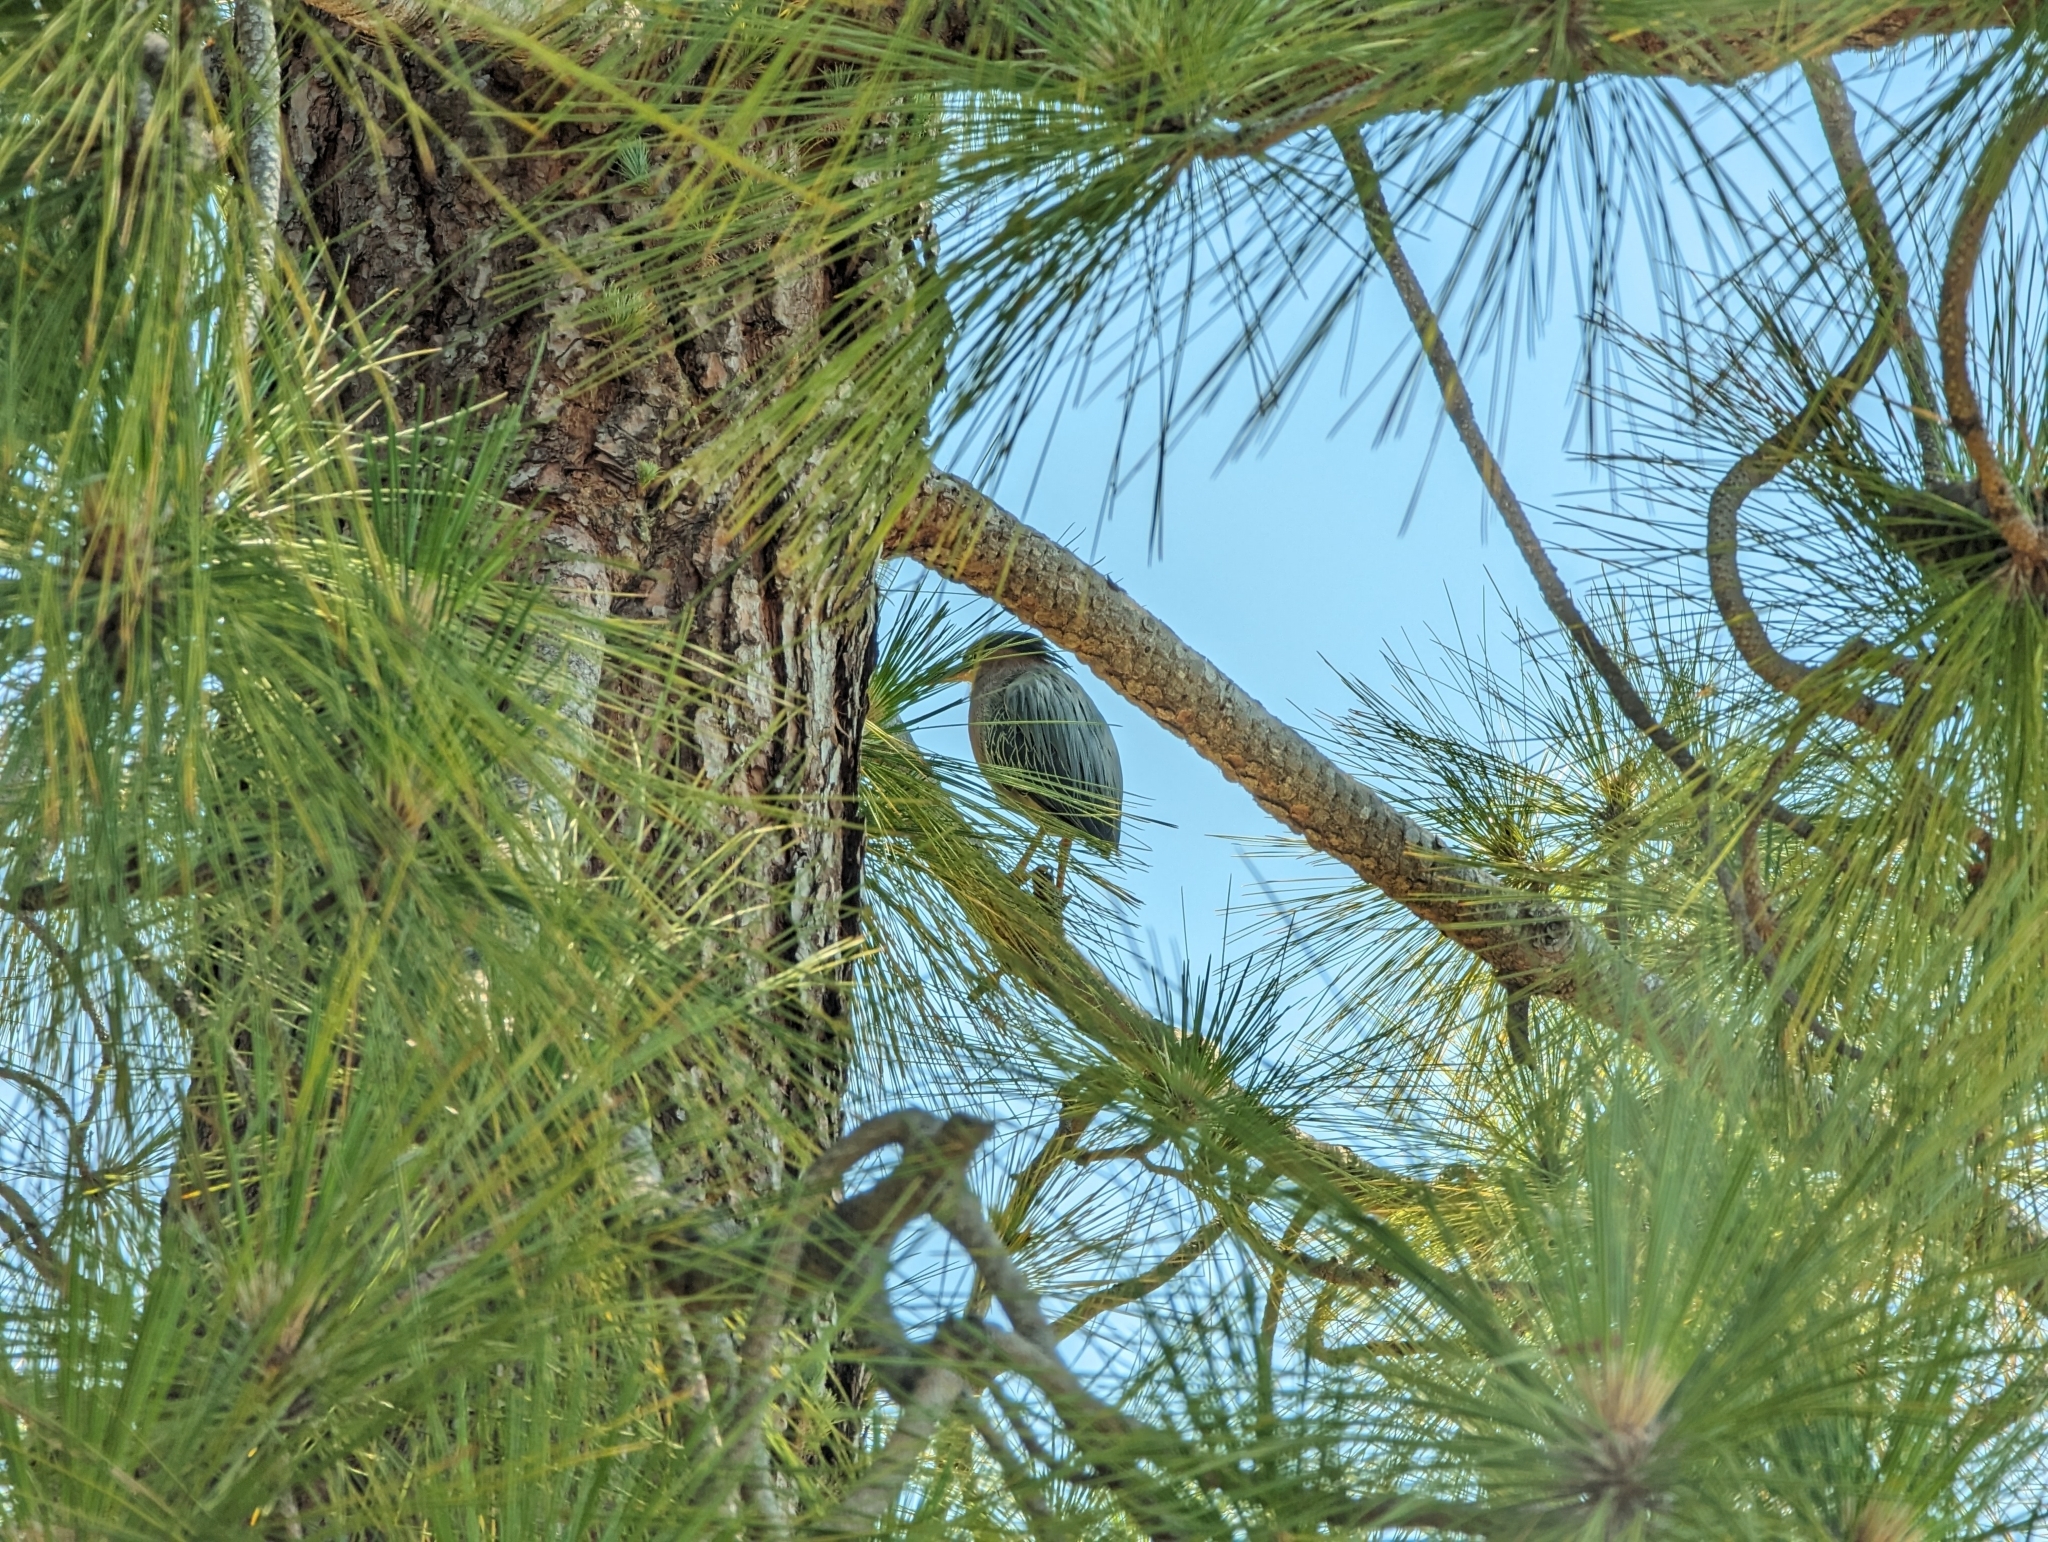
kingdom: Animalia
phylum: Chordata
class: Aves
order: Pelecaniformes
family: Ardeidae
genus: Butorides
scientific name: Butorides virescens
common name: Green heron
